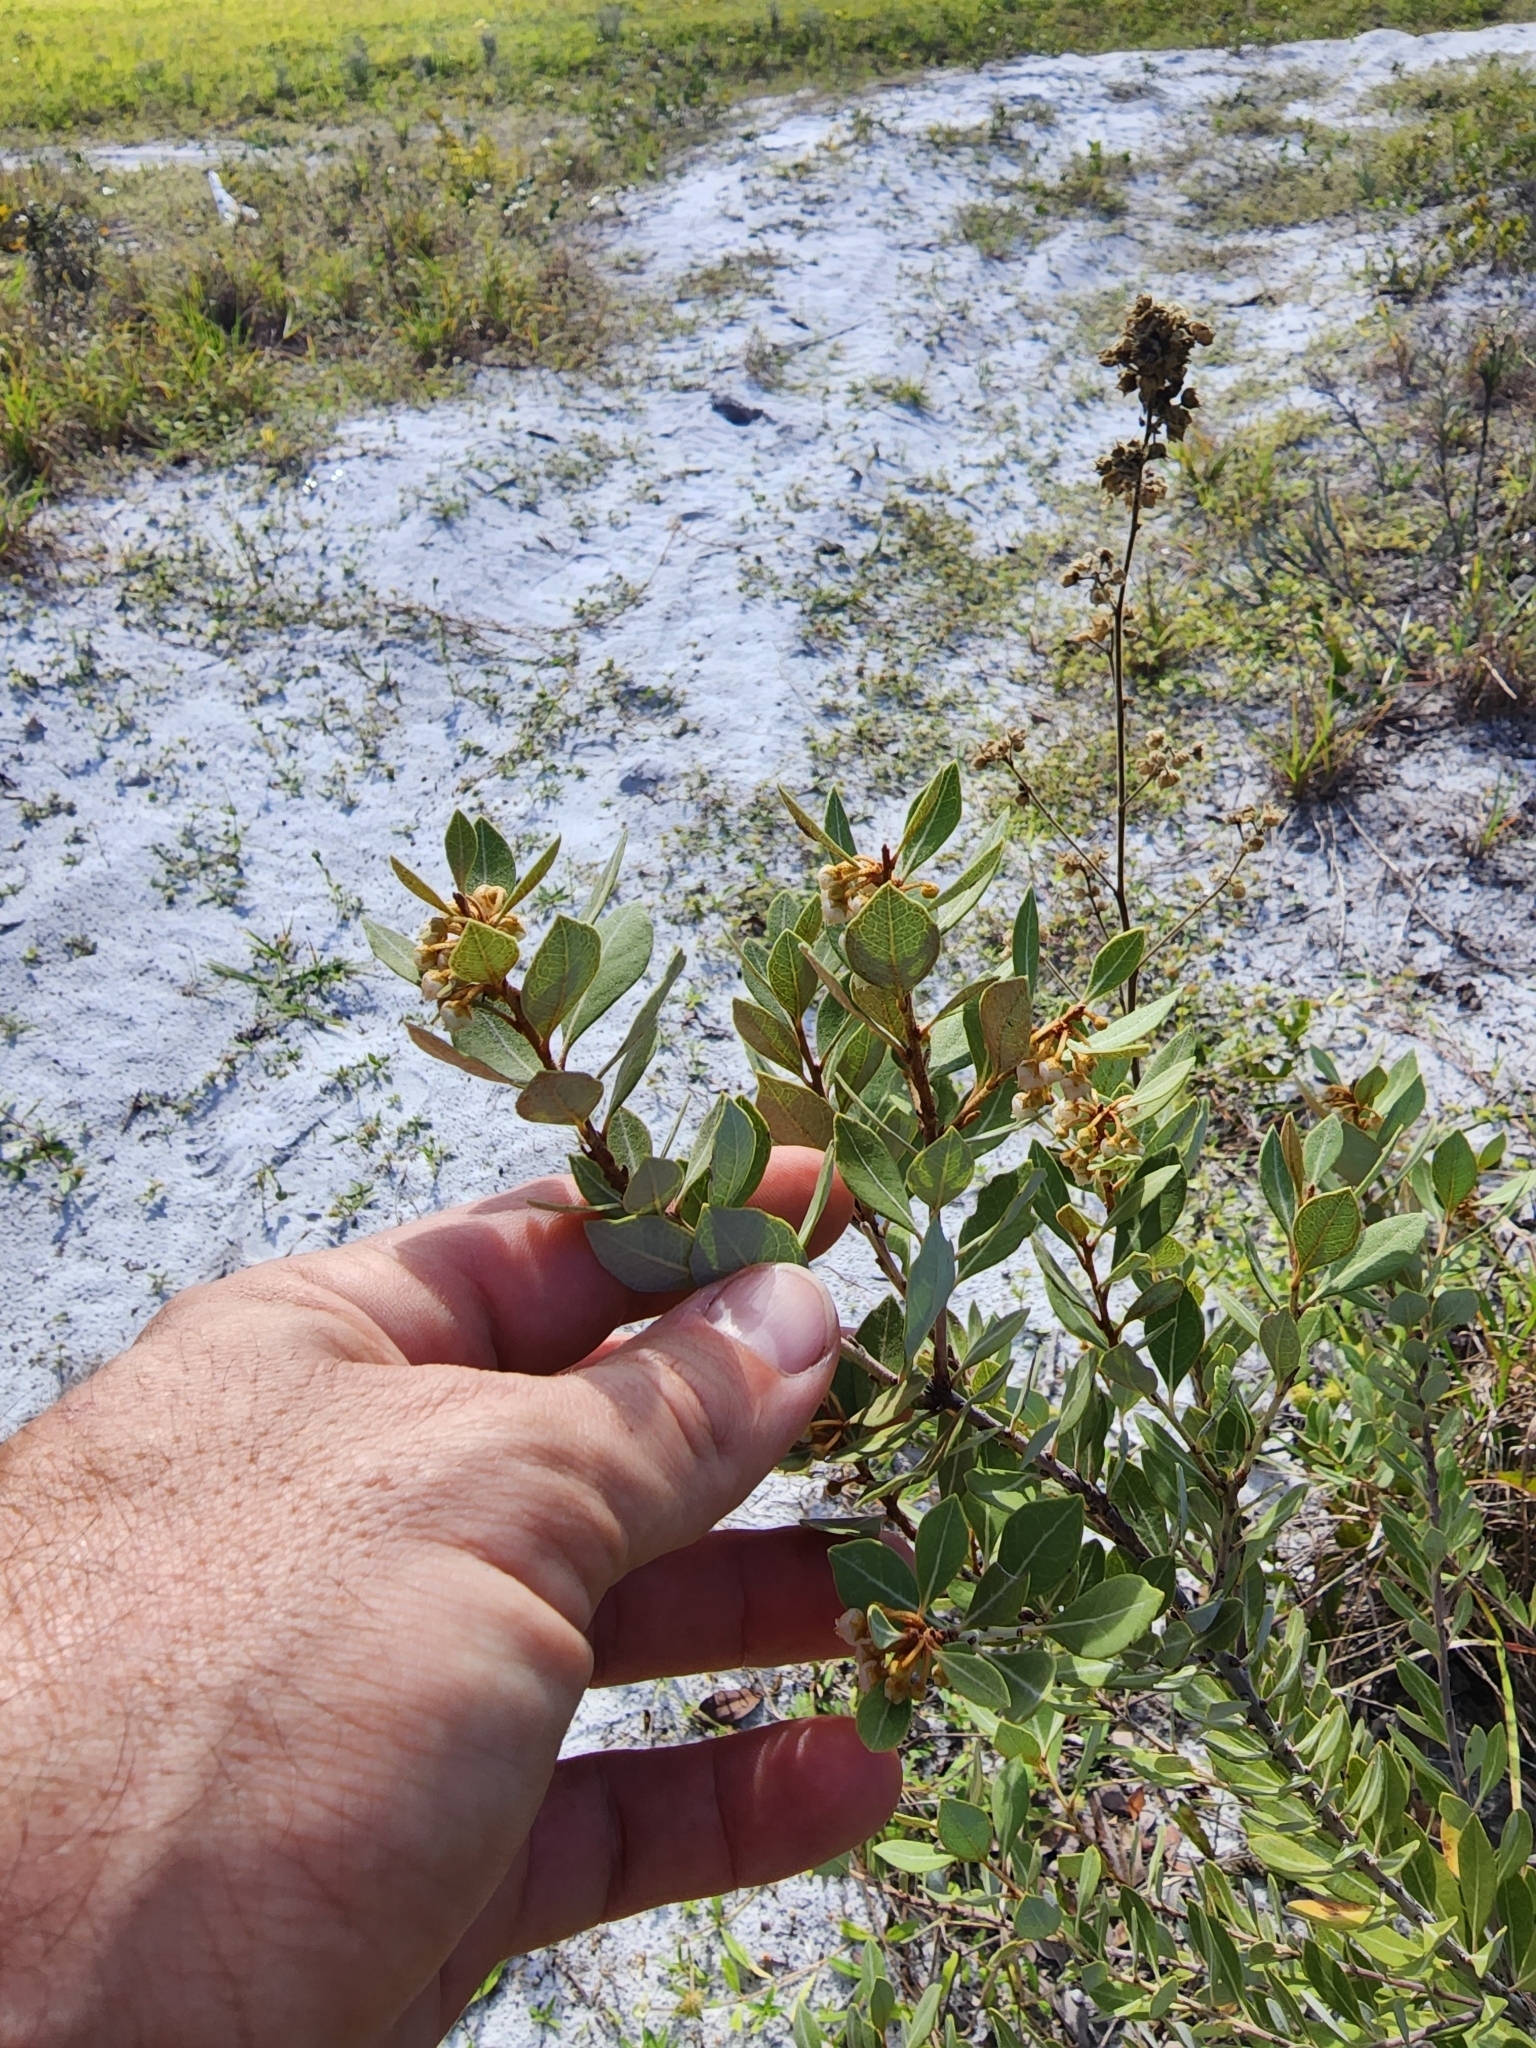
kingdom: Plantae
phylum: Tracheophyta
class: Magnoliopsida
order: Ericales
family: Ericaceae
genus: Lyonia
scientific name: Lyonia fruticosa
